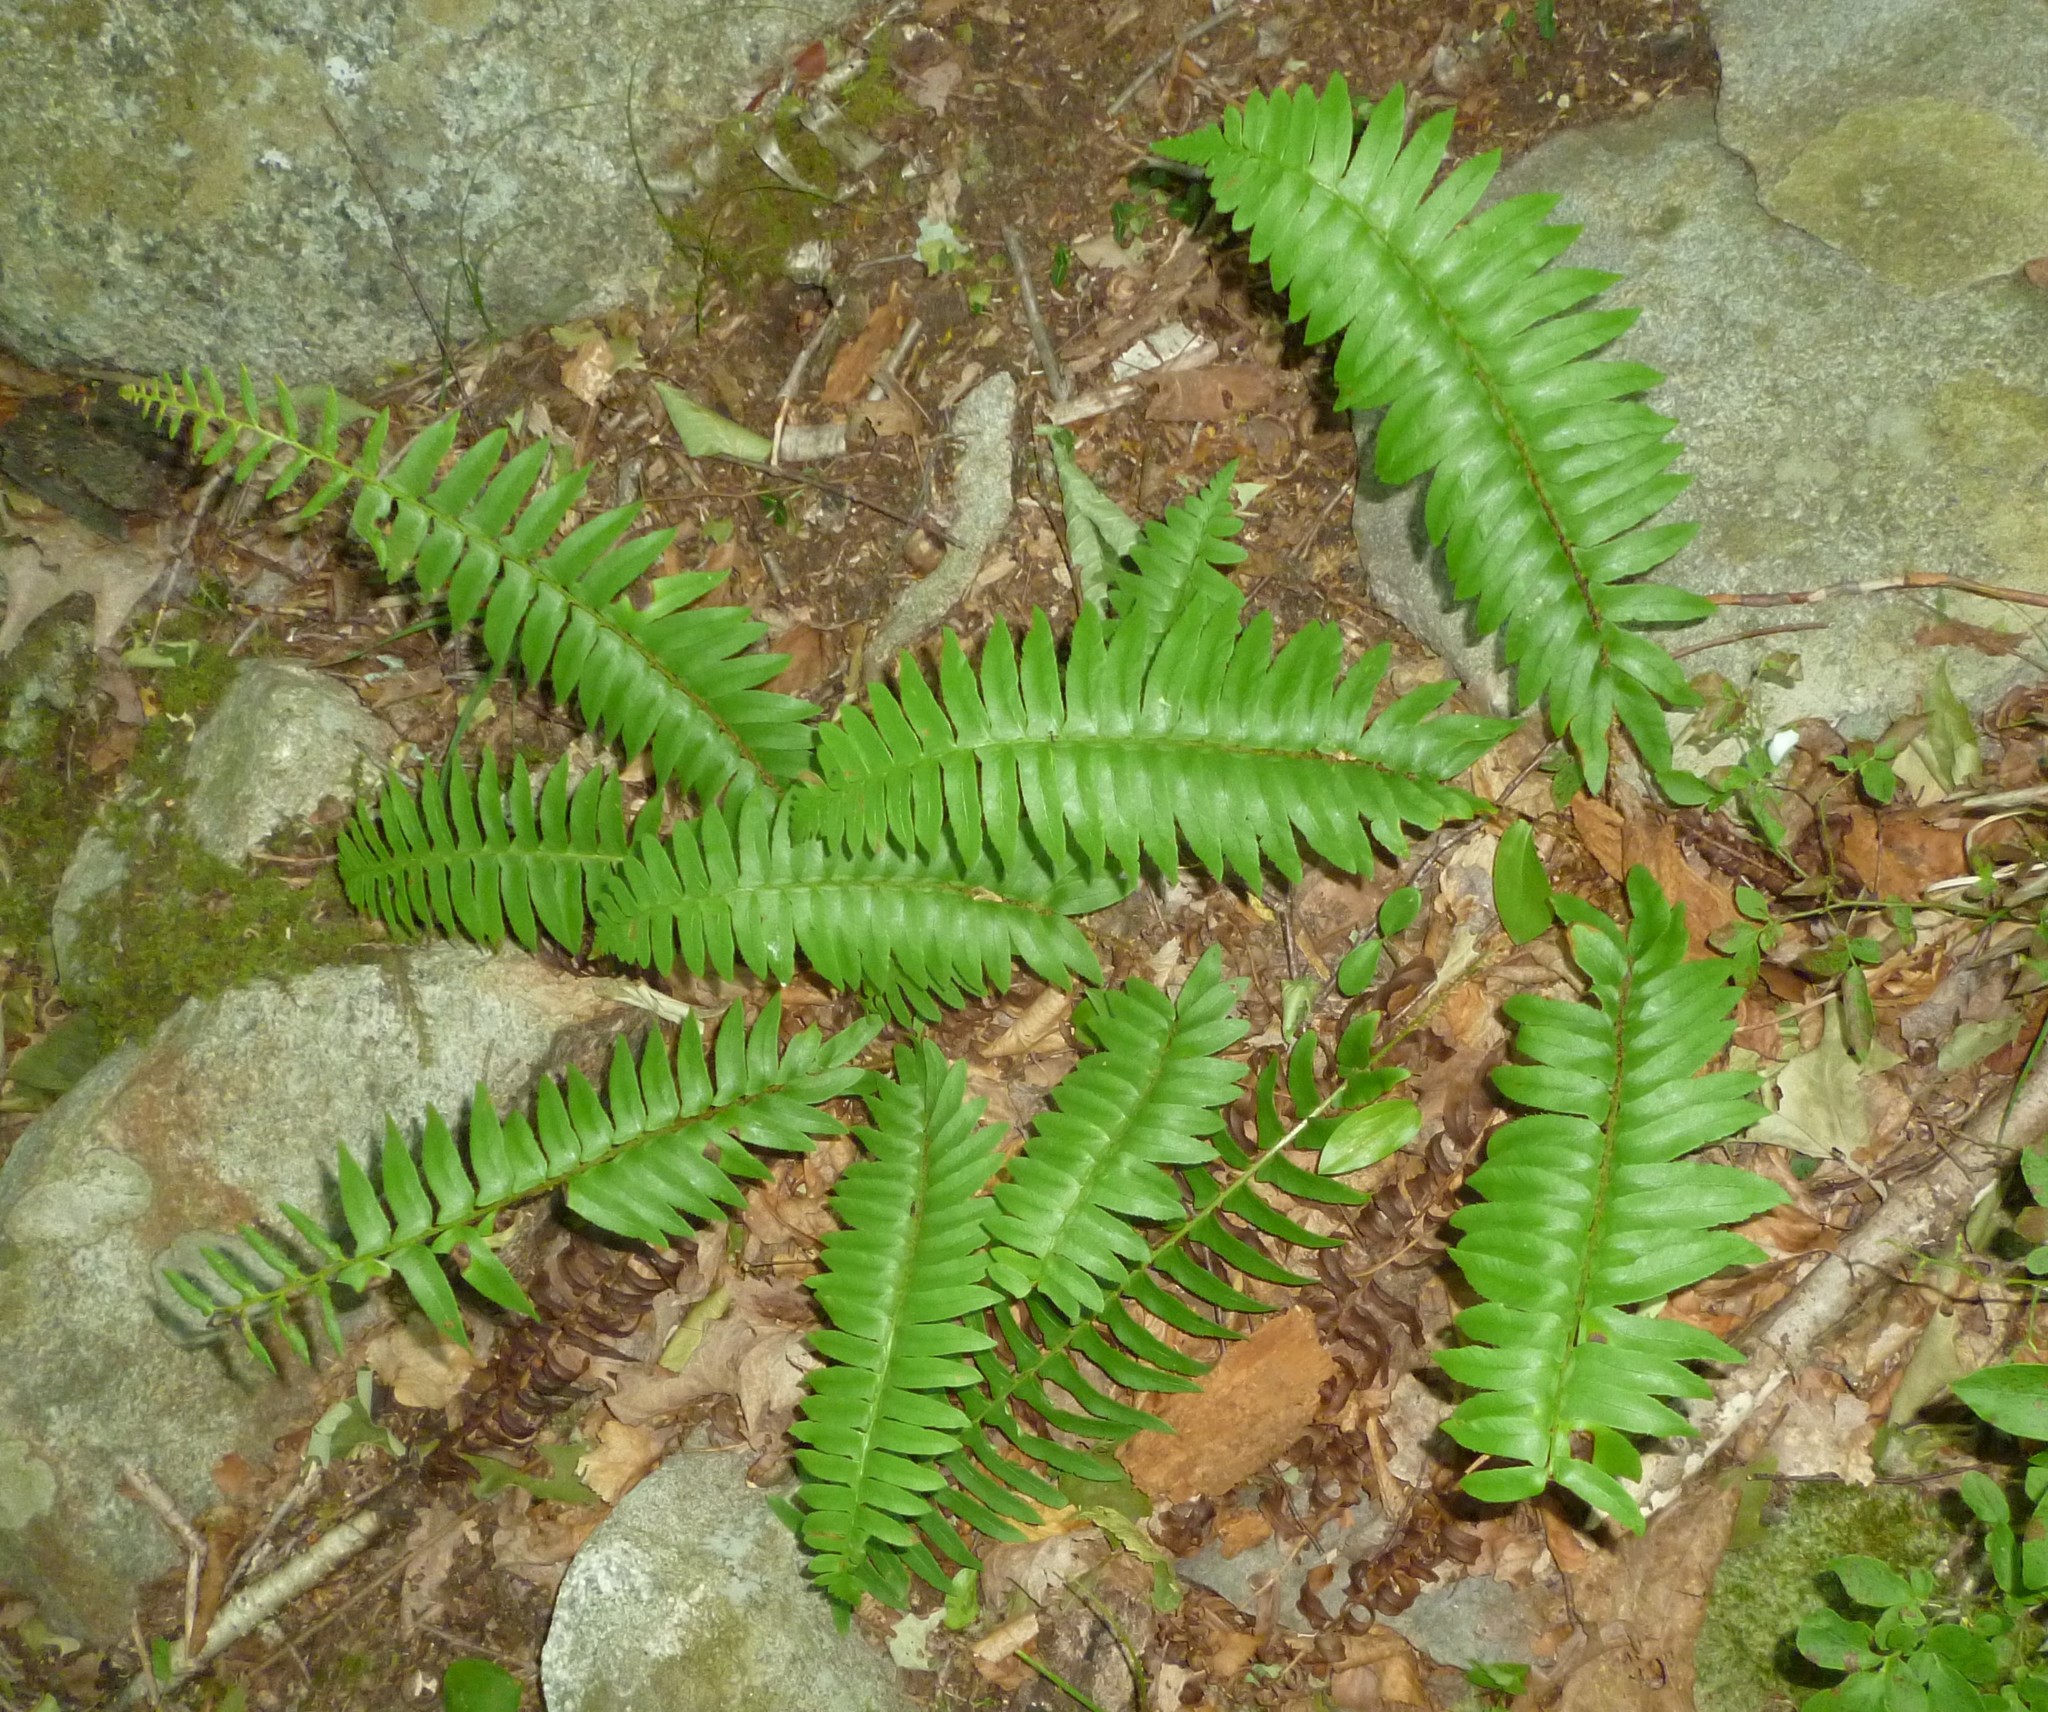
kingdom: Plantae
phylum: Tracheophyta
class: Polypodiopsida
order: Polypodiales
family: Dryopteridaceae
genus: Polystichum
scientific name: Polystichum acrostichoides
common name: Christmas fern
